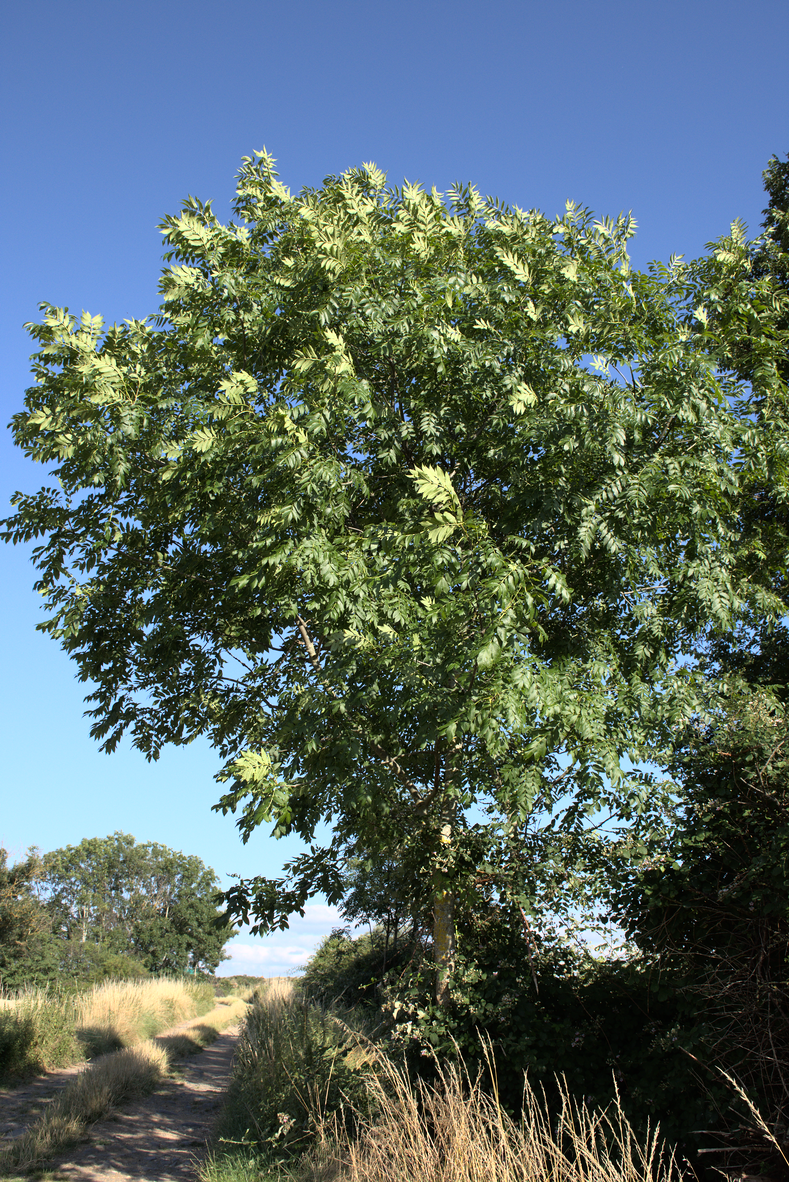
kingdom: Plantae
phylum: Tracheophyta
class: Magnoliopsida
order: Lamiales
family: Oleaceae
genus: Fraxinus
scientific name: Fraxinus excelsior
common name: European ash
